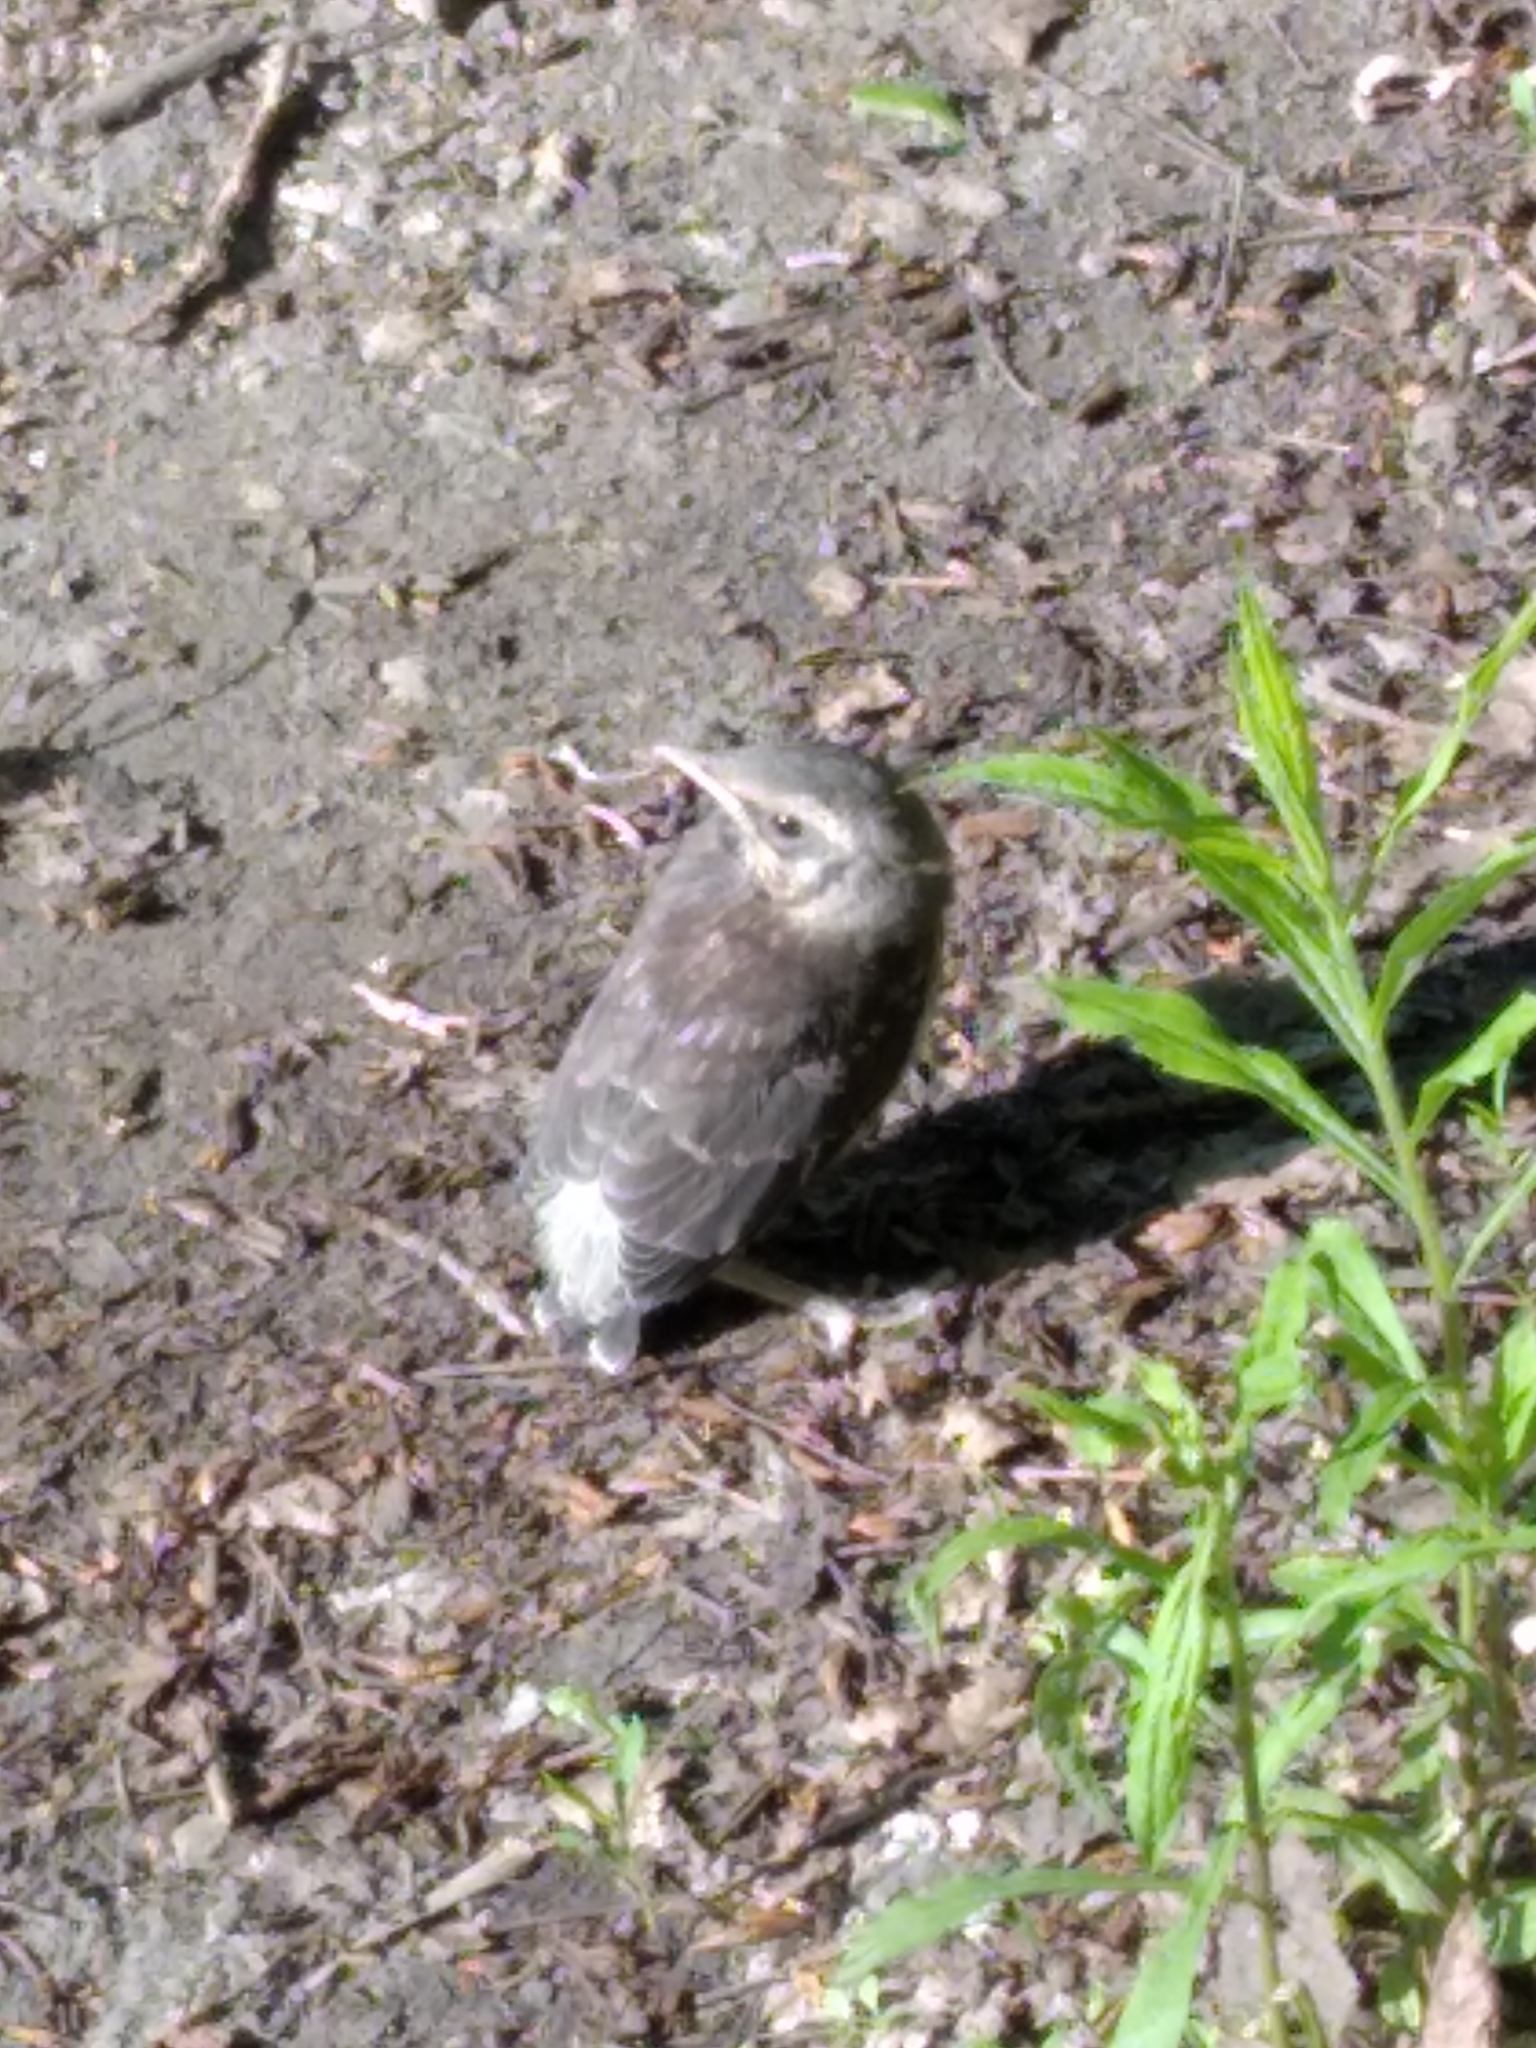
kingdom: Animalia
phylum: Chordata
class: Aves
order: Passeriformes
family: Turdidae
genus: Turdus
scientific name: Turdus pilaris
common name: Fieldfare
